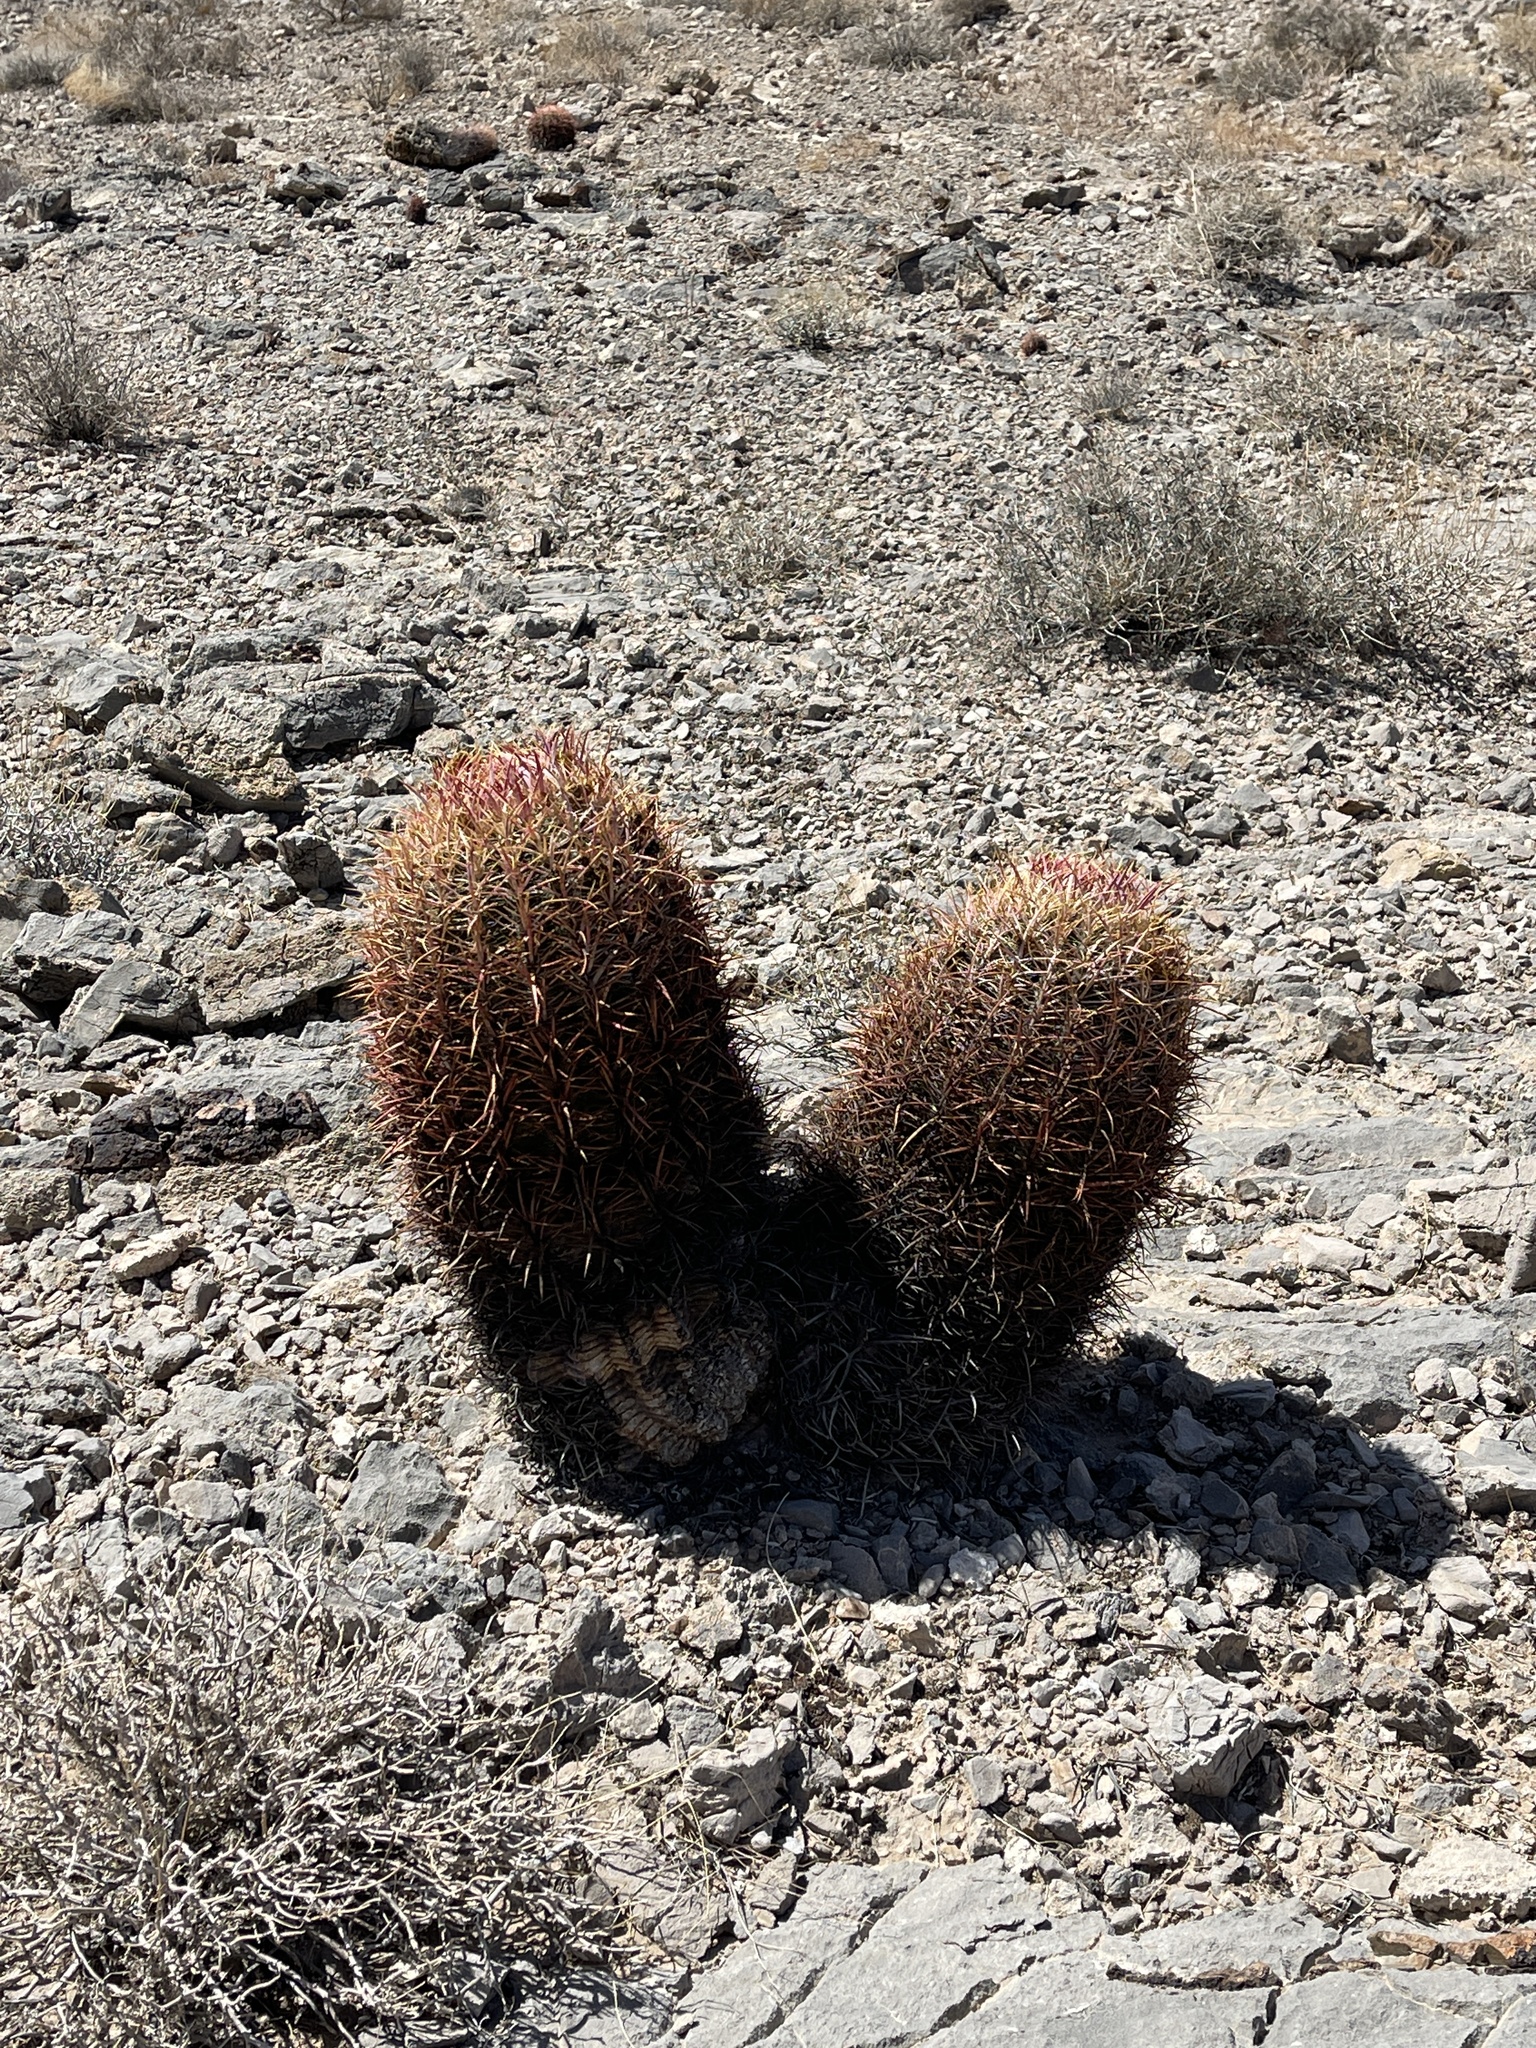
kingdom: Plantae
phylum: Tracheophyta
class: Magnoliopsida
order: Caryophyllales
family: Cactaceae
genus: Ferocactus
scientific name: Ferocactus cylindraceus
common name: California barrel cactus
